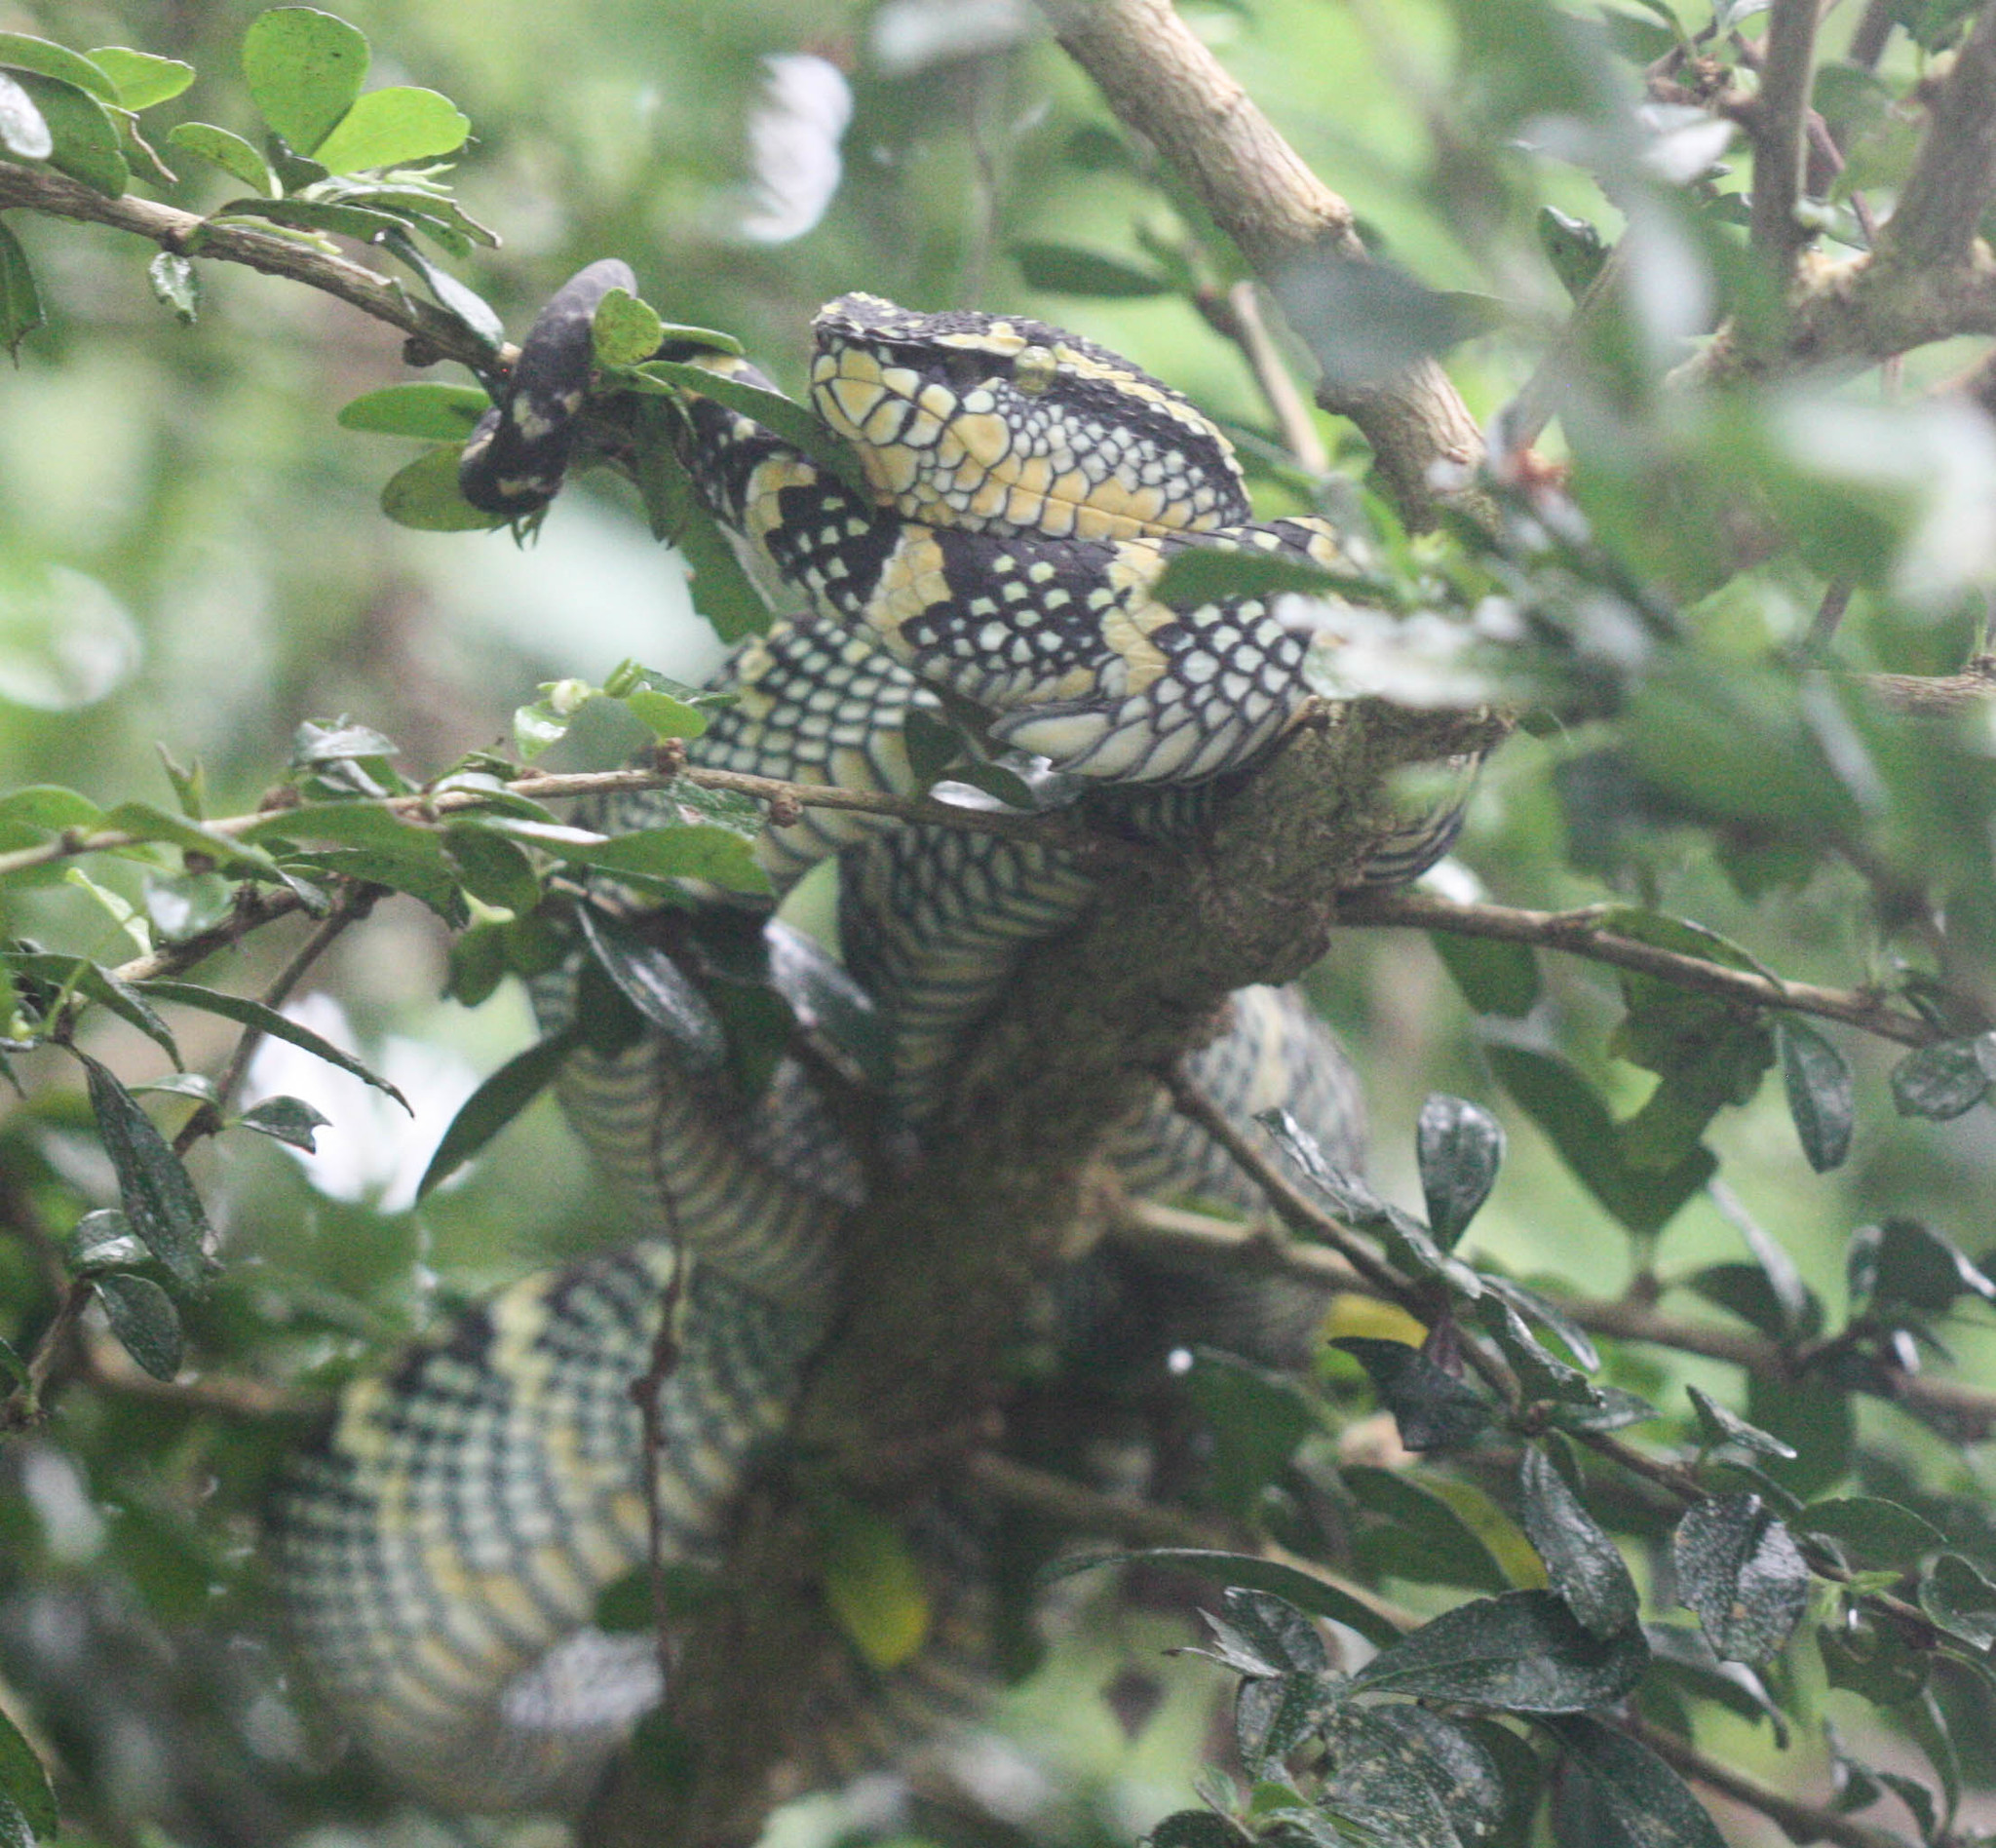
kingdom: Animalia
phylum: Chordata
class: Squamata
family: Viperidae
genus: Tropidolaemus
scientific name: Tropidolaemus wagleri
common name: Wagler's palm viper
